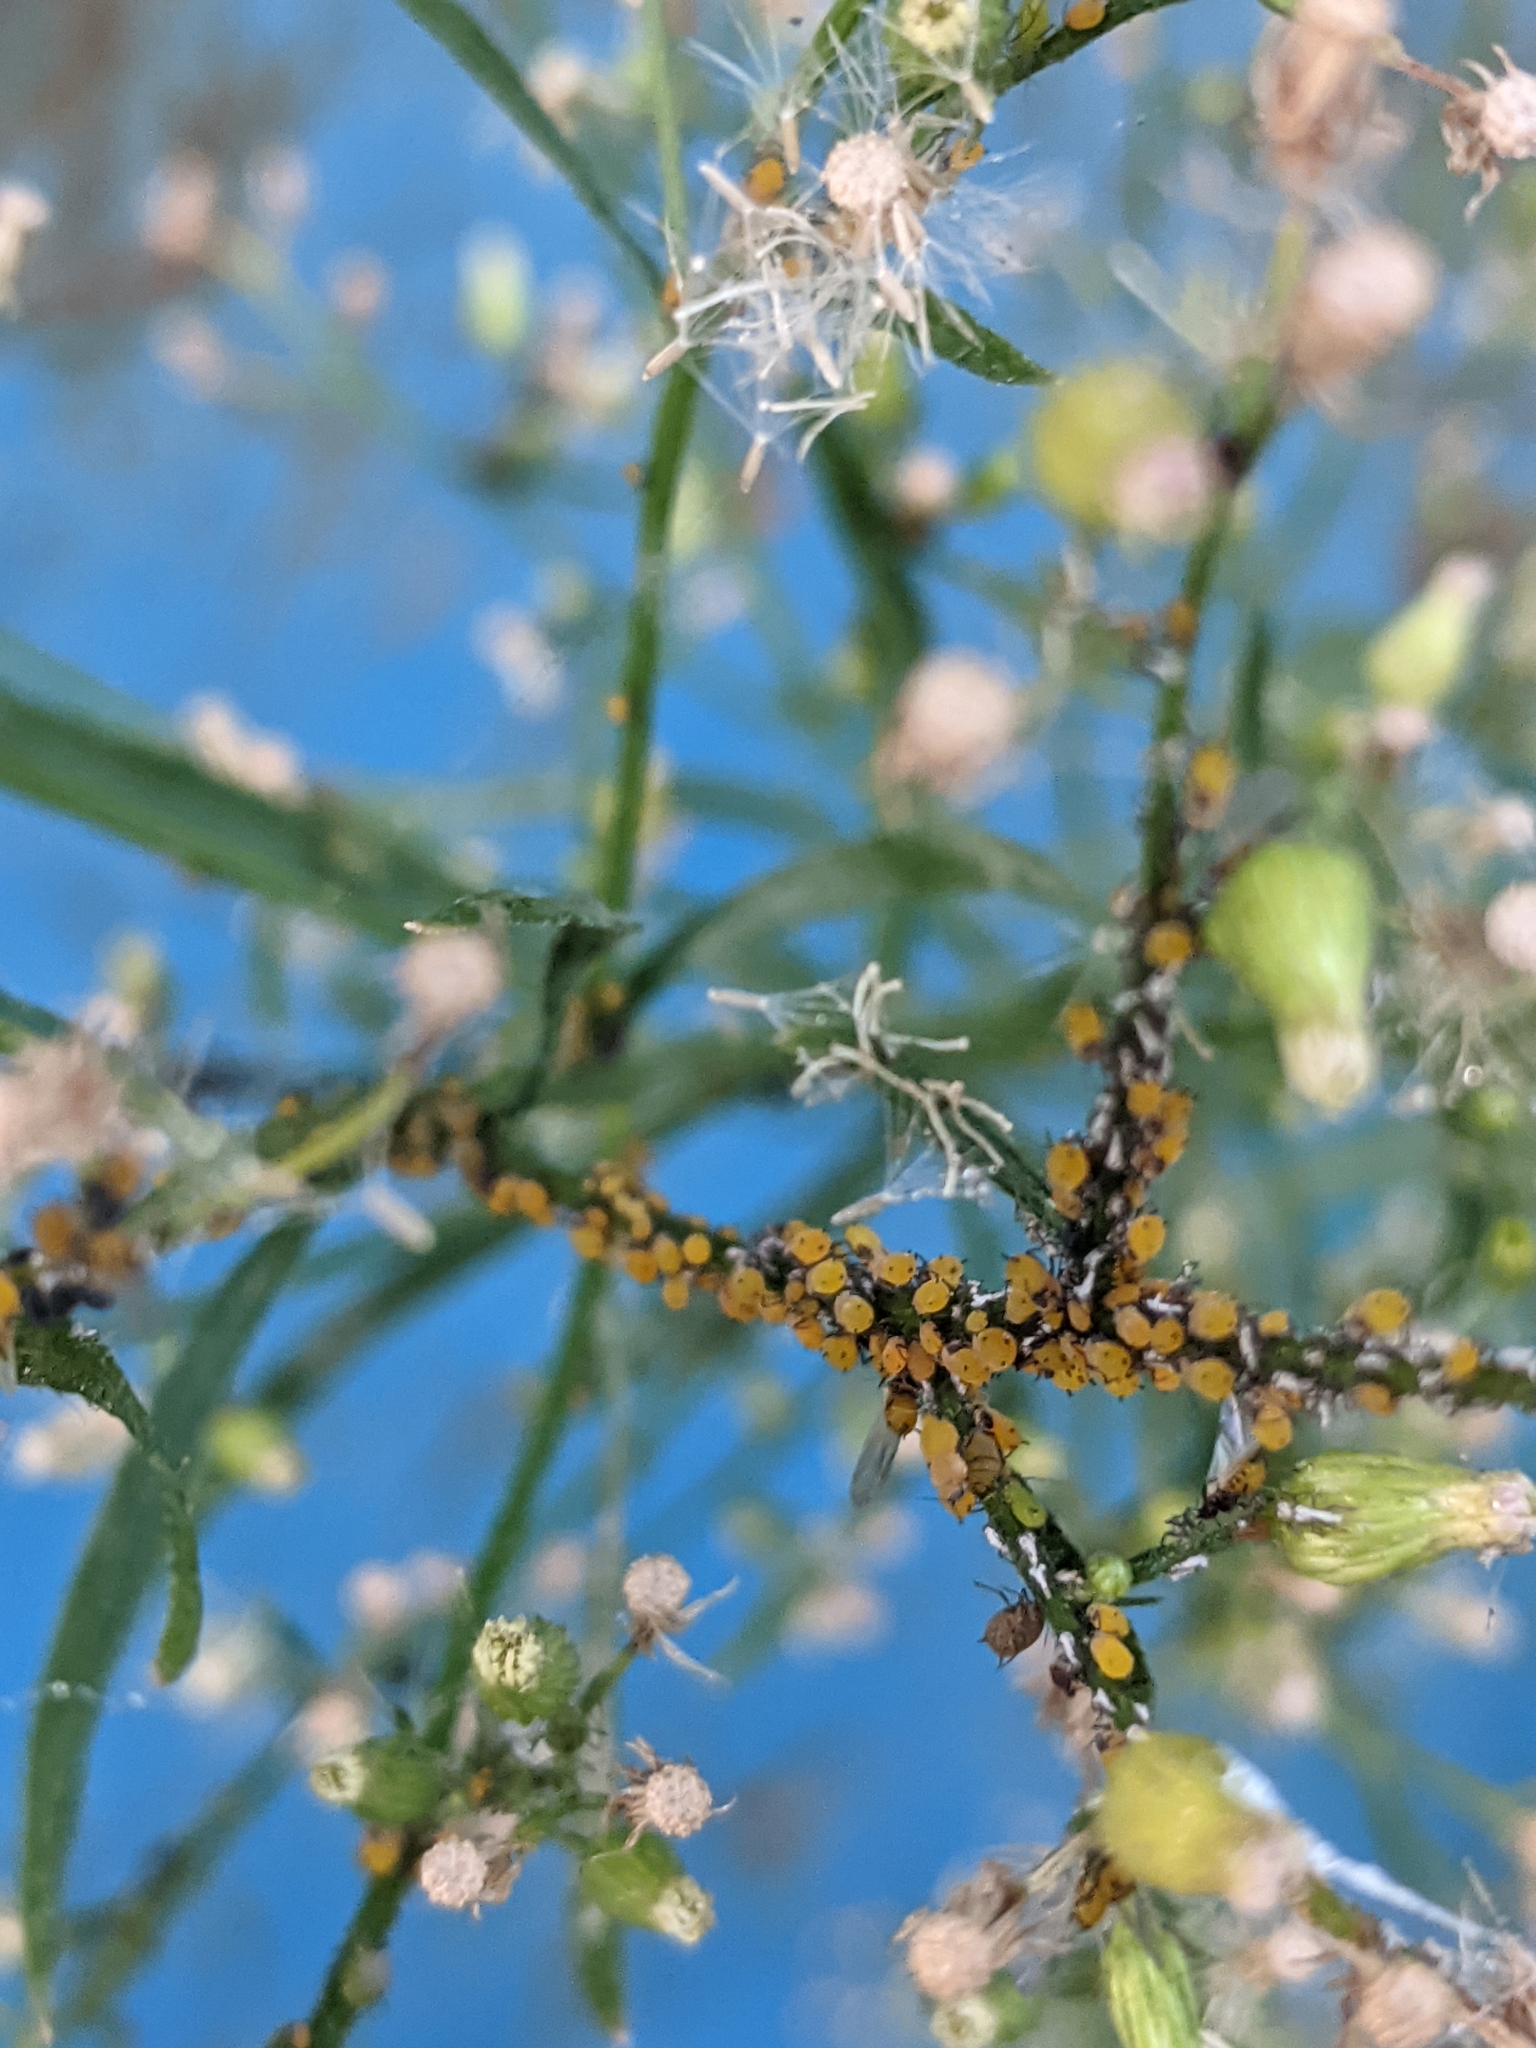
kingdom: Animalia
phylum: Arthropoda
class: Insecta
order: Hemiptera
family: Aphididae
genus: Aphis
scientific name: Aphis nerii
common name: Oleander aphid
